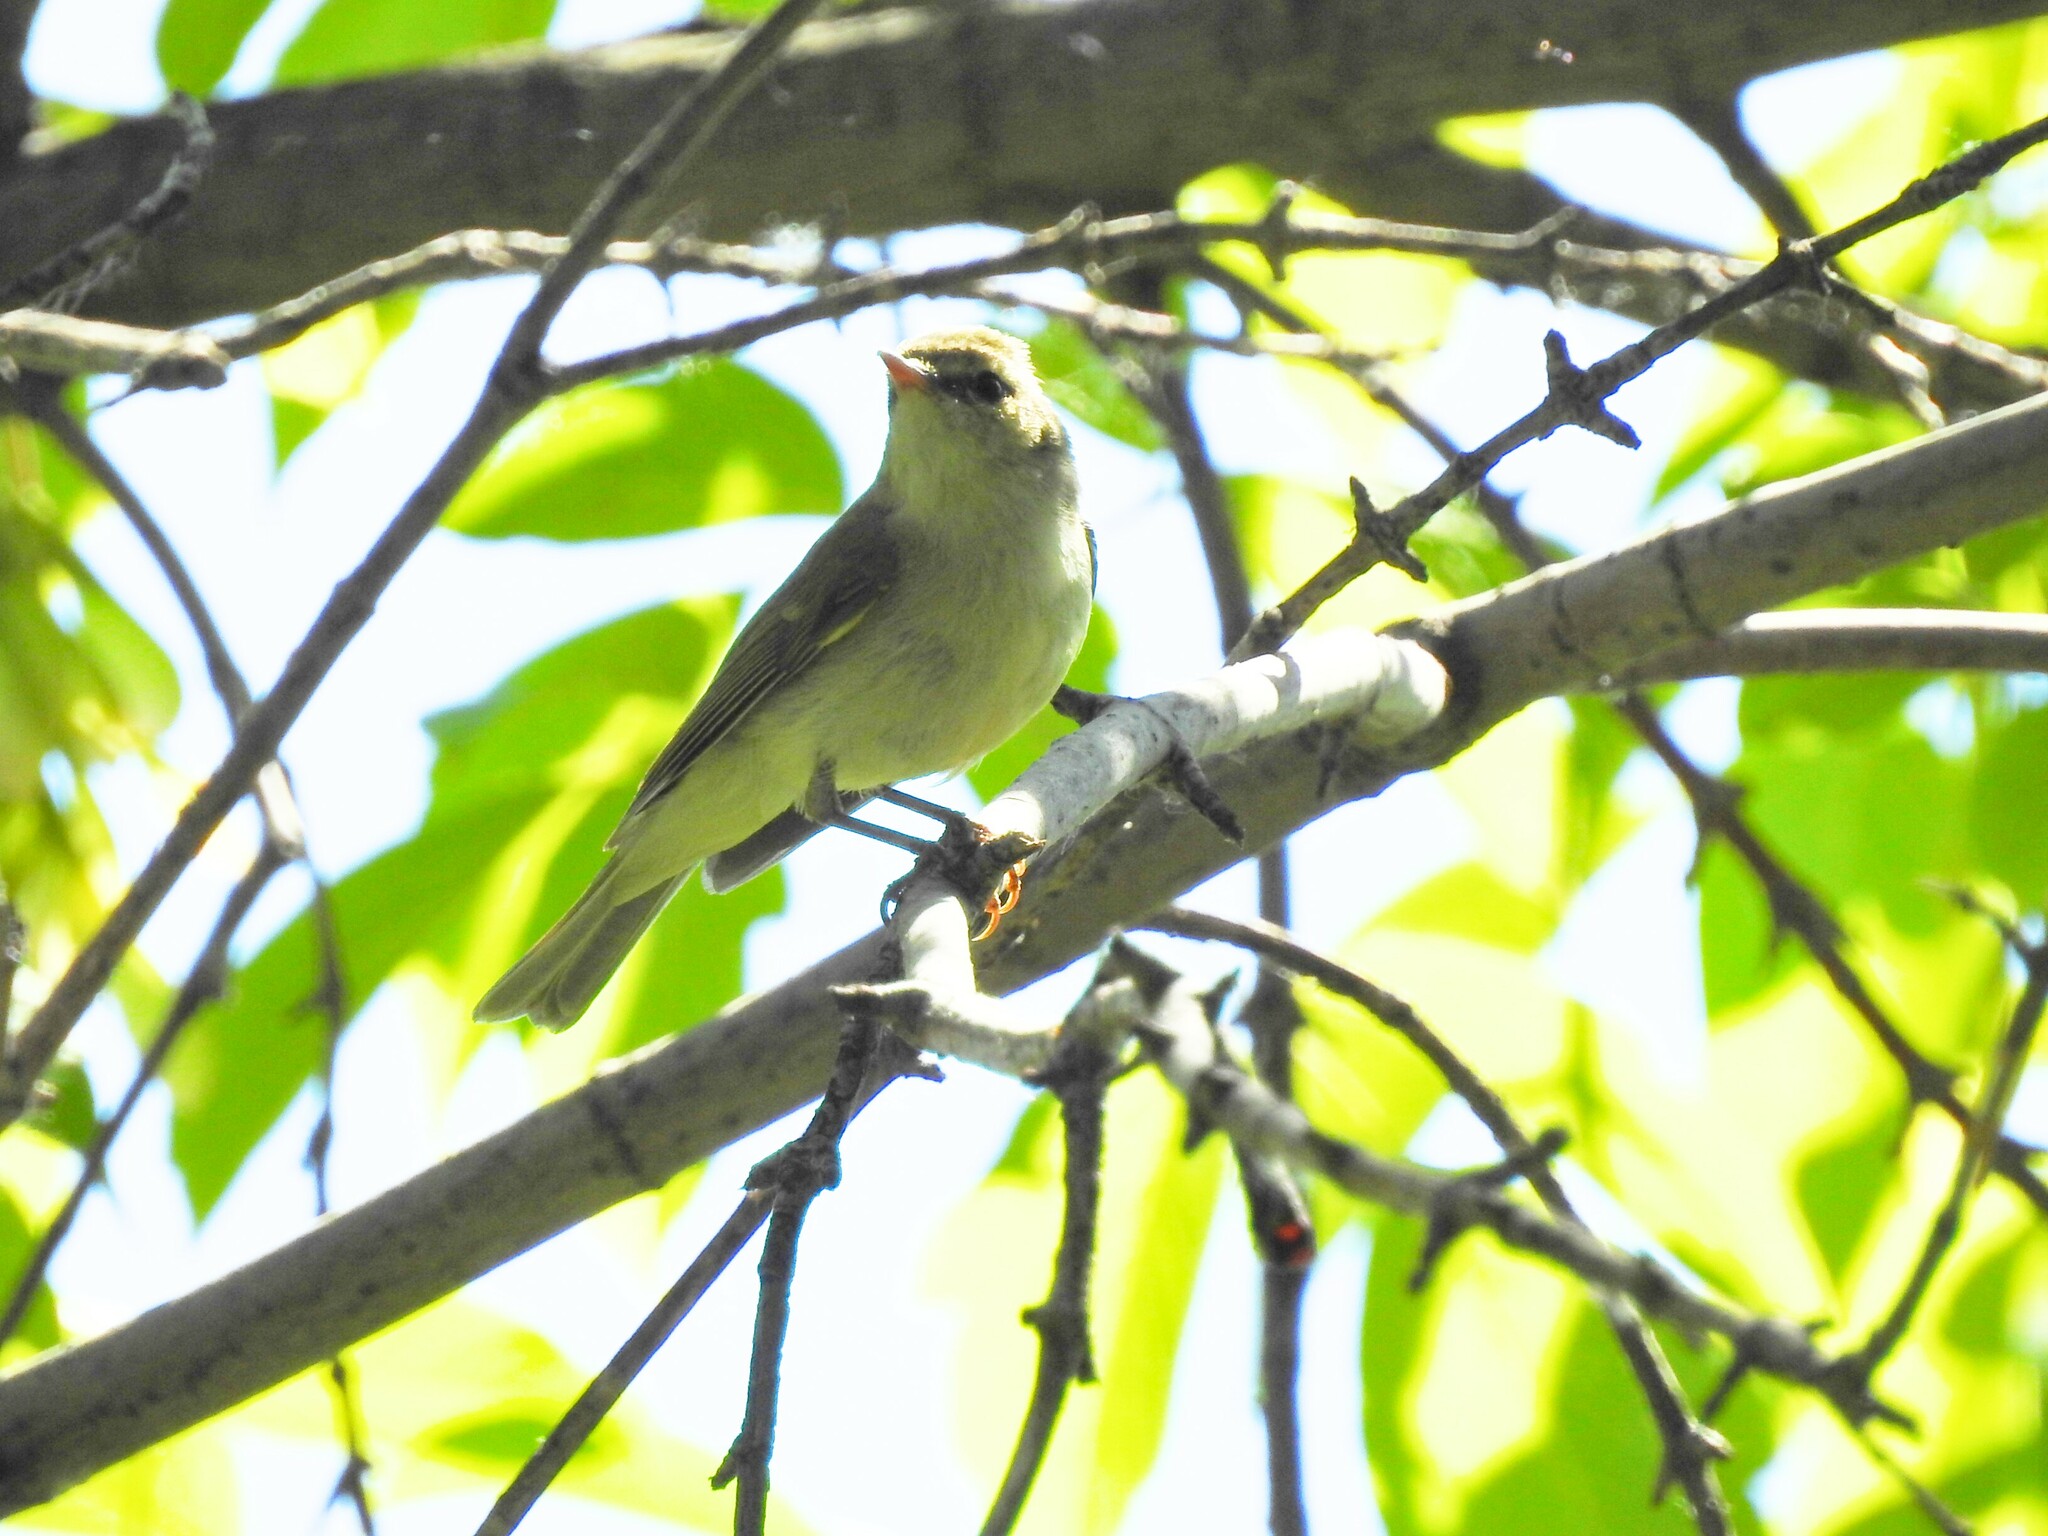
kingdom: Animalia
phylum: Chordata
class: Aves
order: Passeriformes
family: Phylloscopidae
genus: Phylloscopus
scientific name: Phylloscopus trochiloides
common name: Greenish warbler
